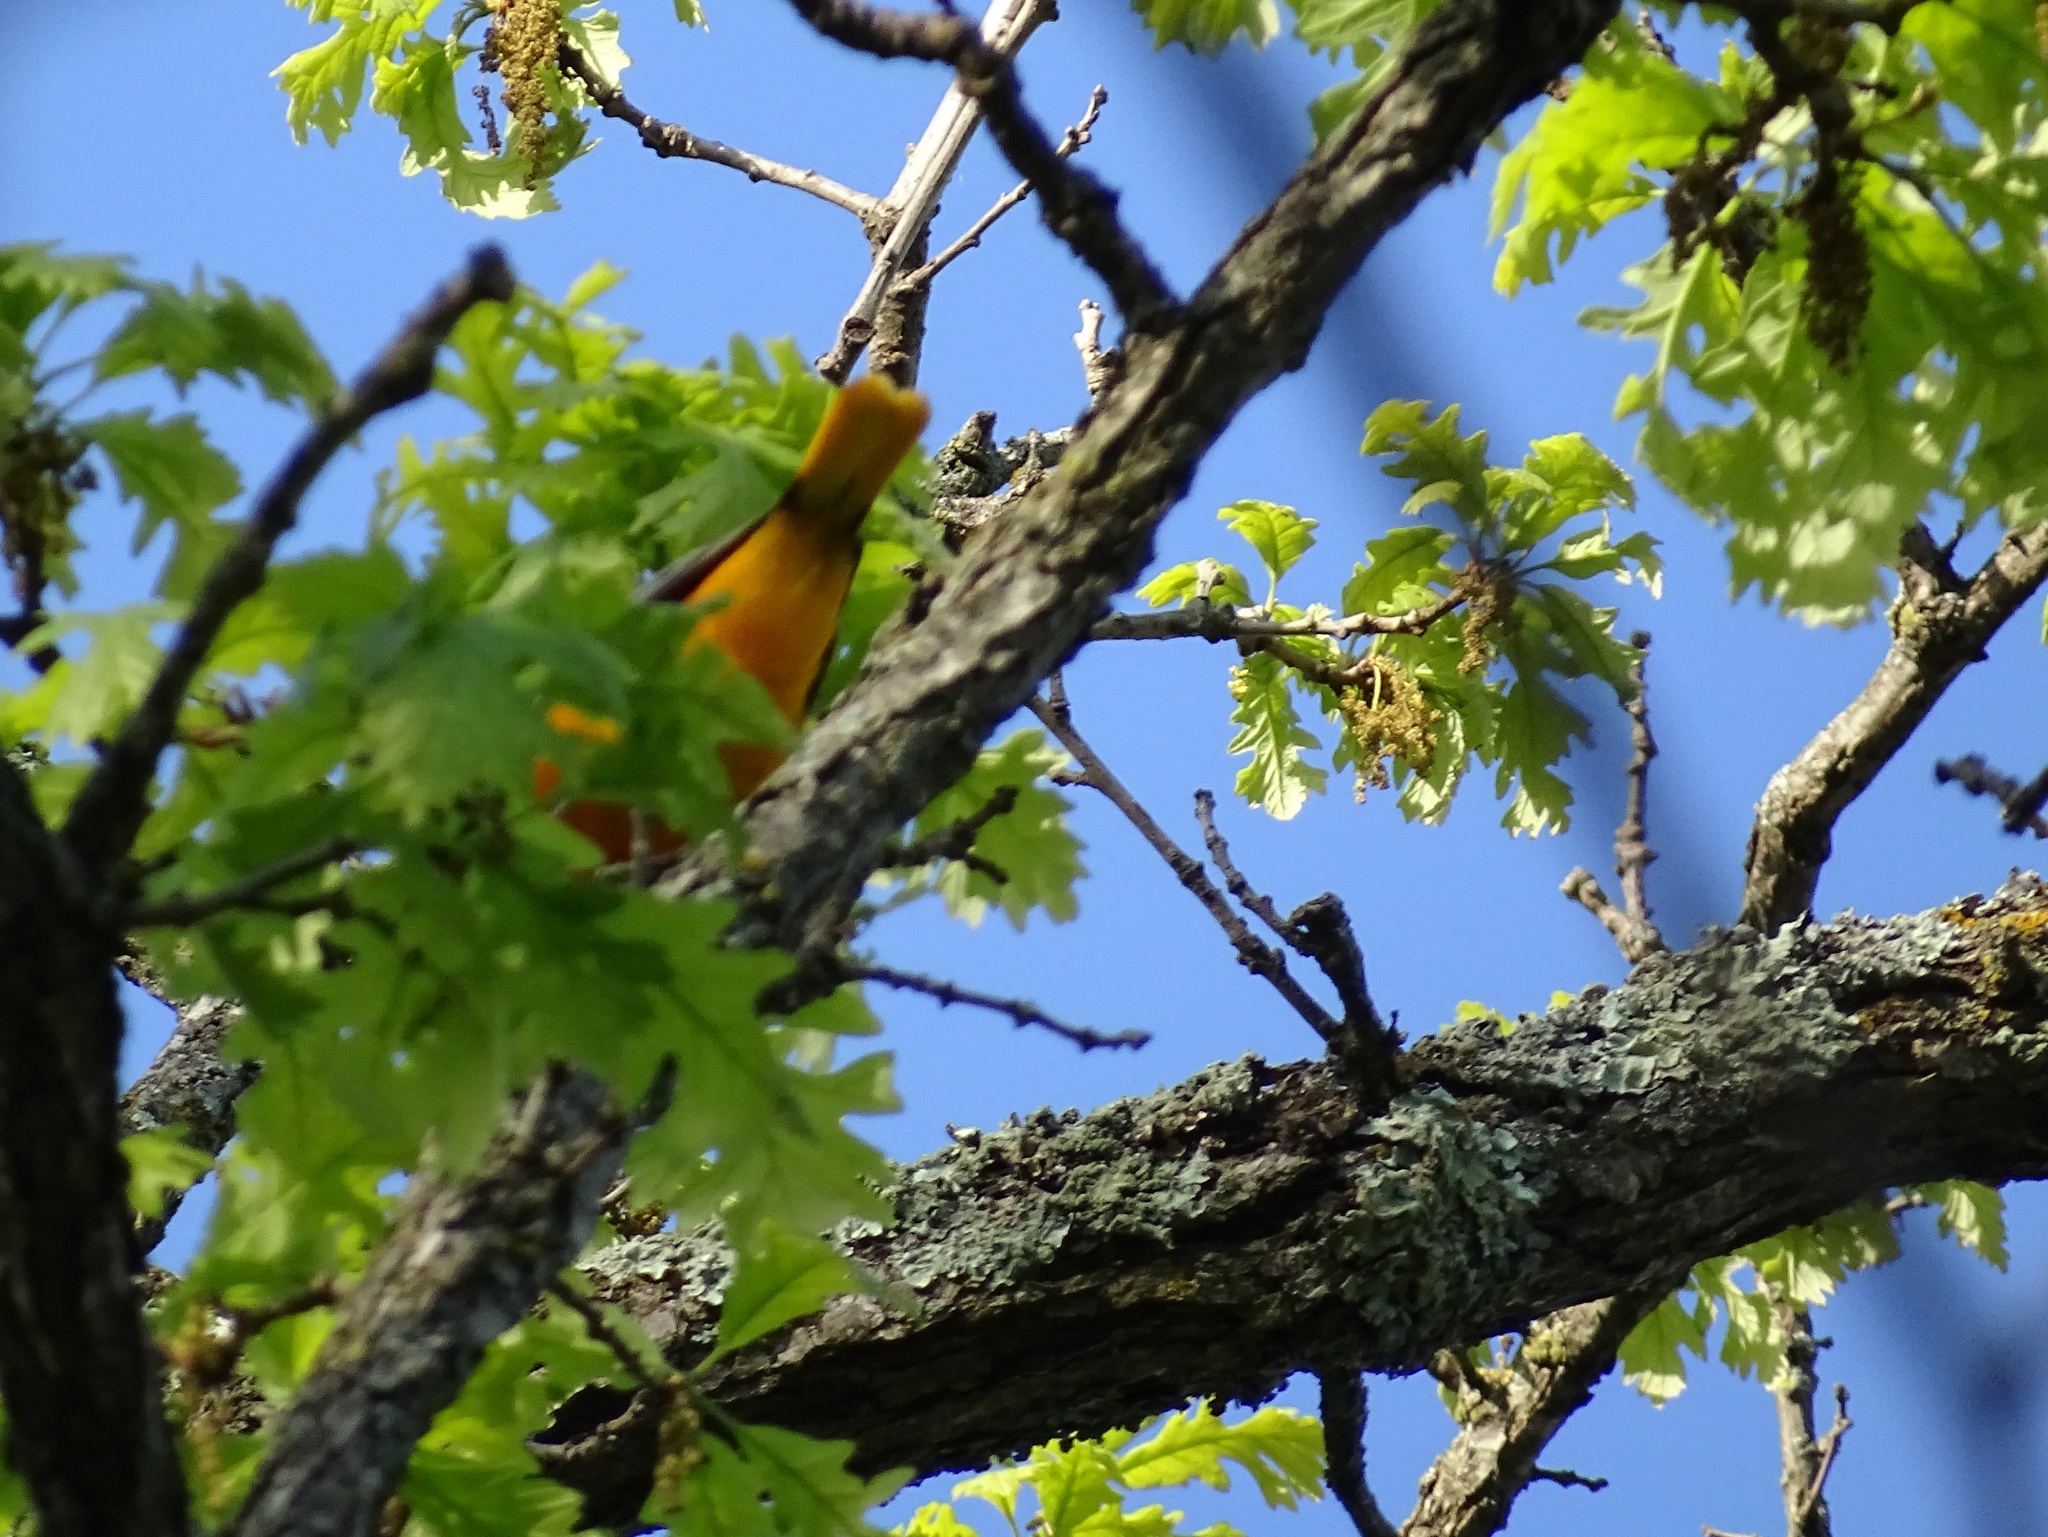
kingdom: Animalia
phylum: Chordata
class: Aves
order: Passeriformes
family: Icteridae
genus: Icterus
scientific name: Icterus galbula
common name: Baltimore oriole
